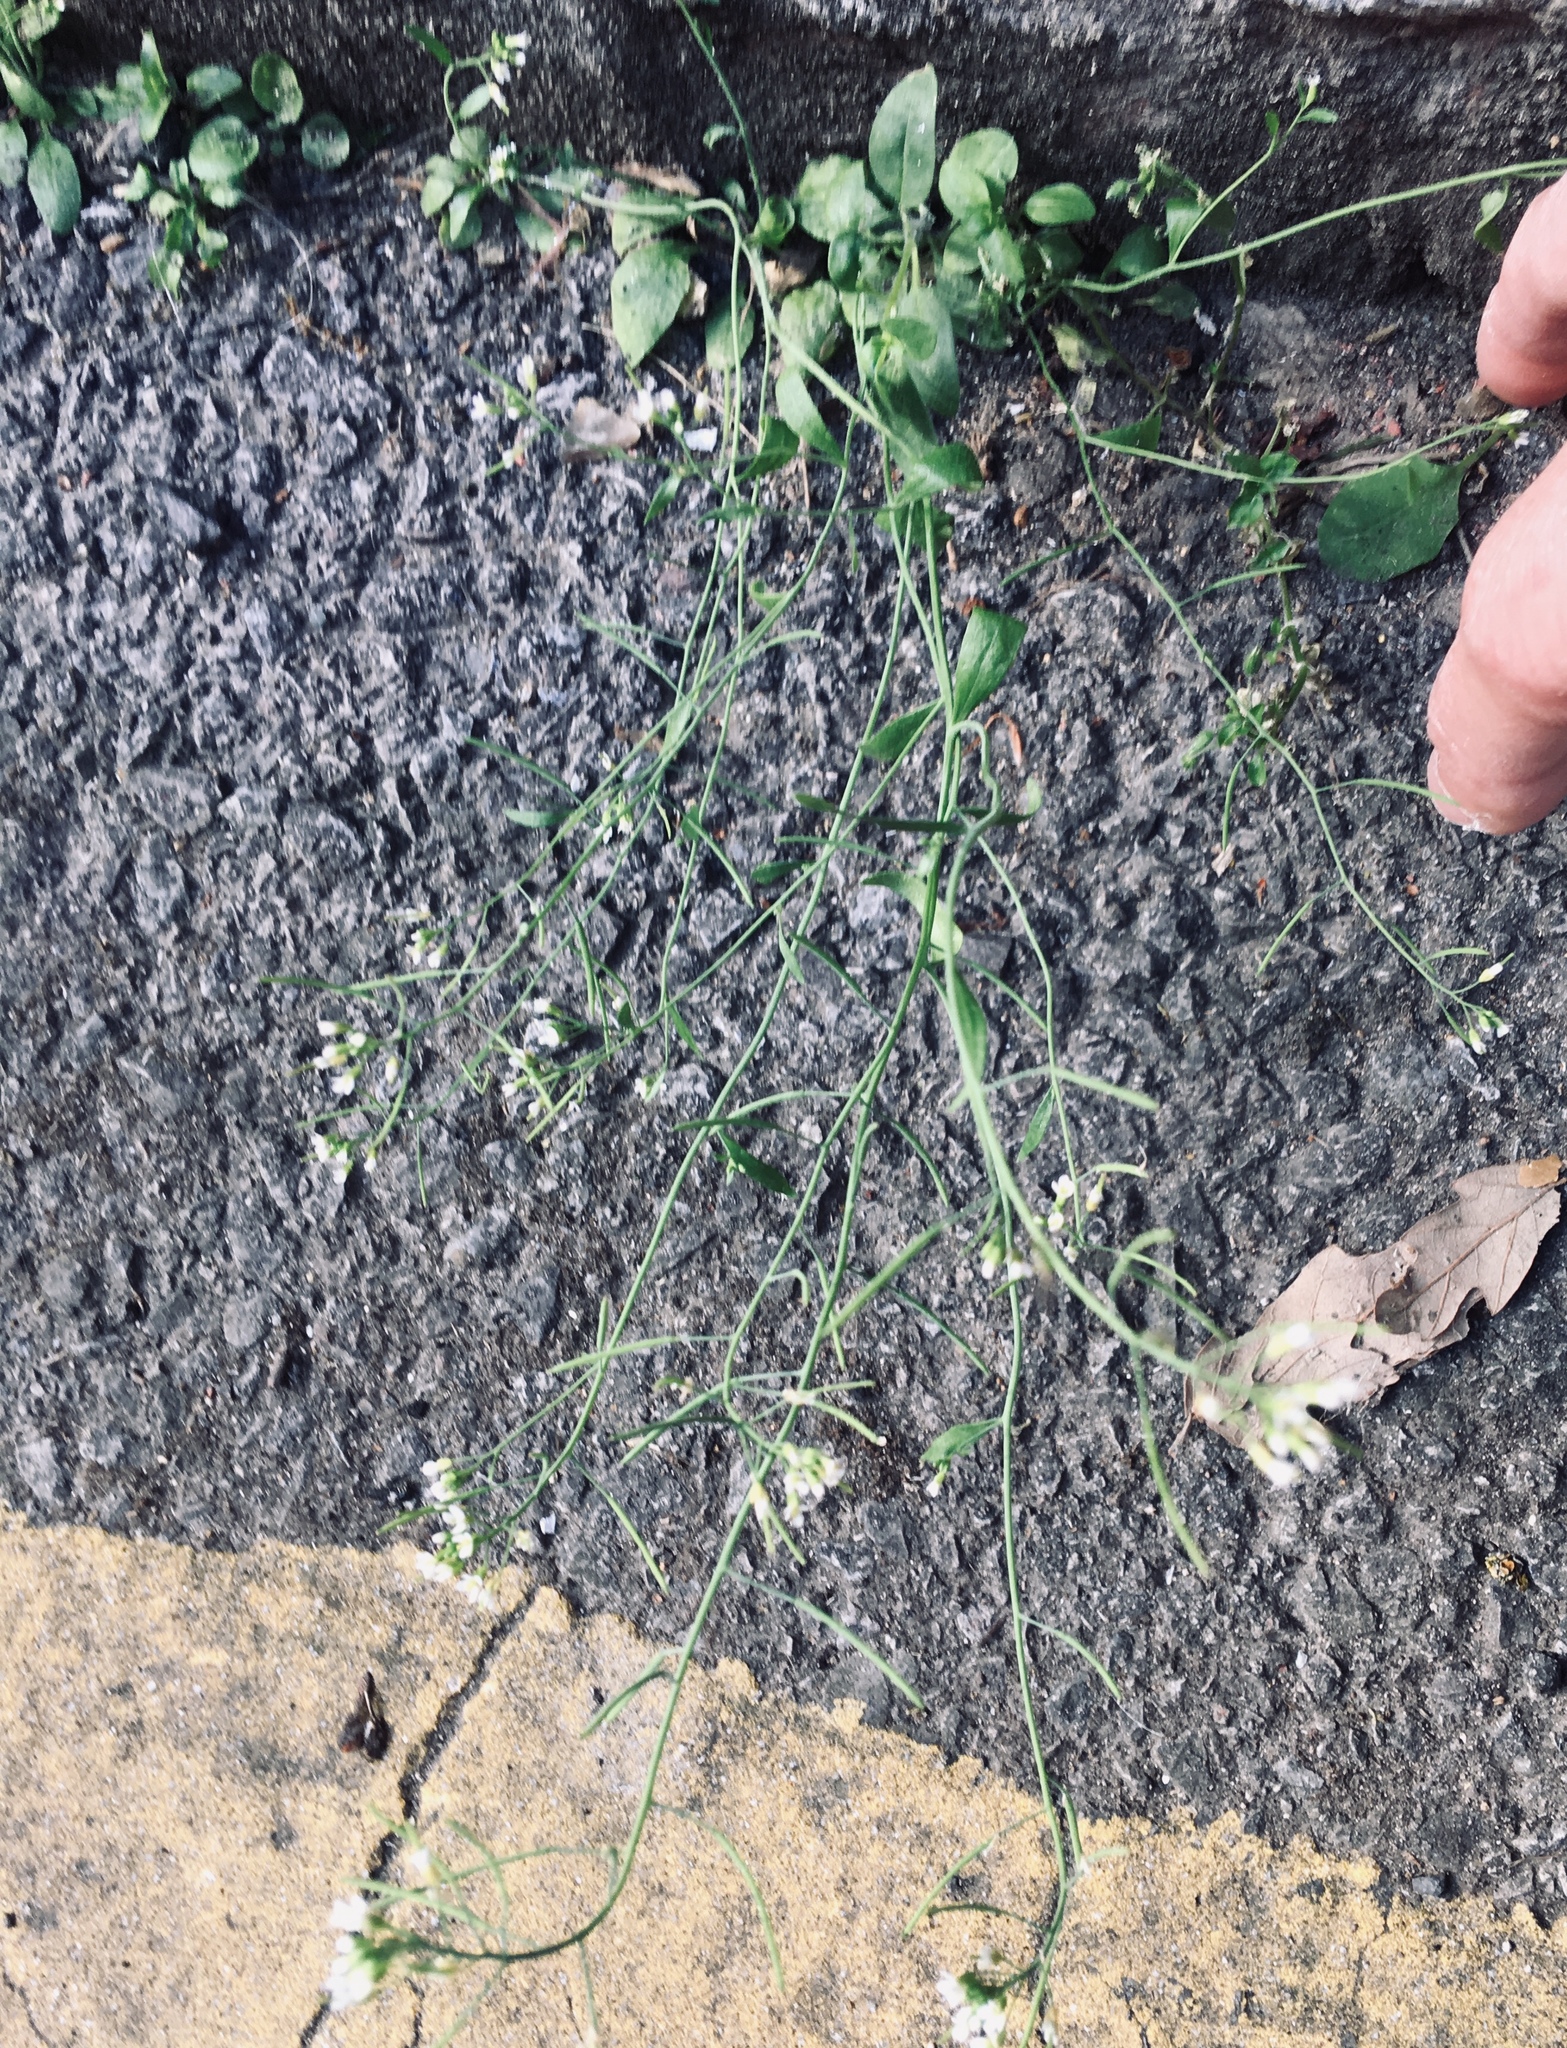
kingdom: Plantae
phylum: Tracheophyta
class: Magnoliopsida
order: Brassicales
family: Brassicaceae
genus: Arabidopsis
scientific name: Arabidopsis thaliana
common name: Thale cress
